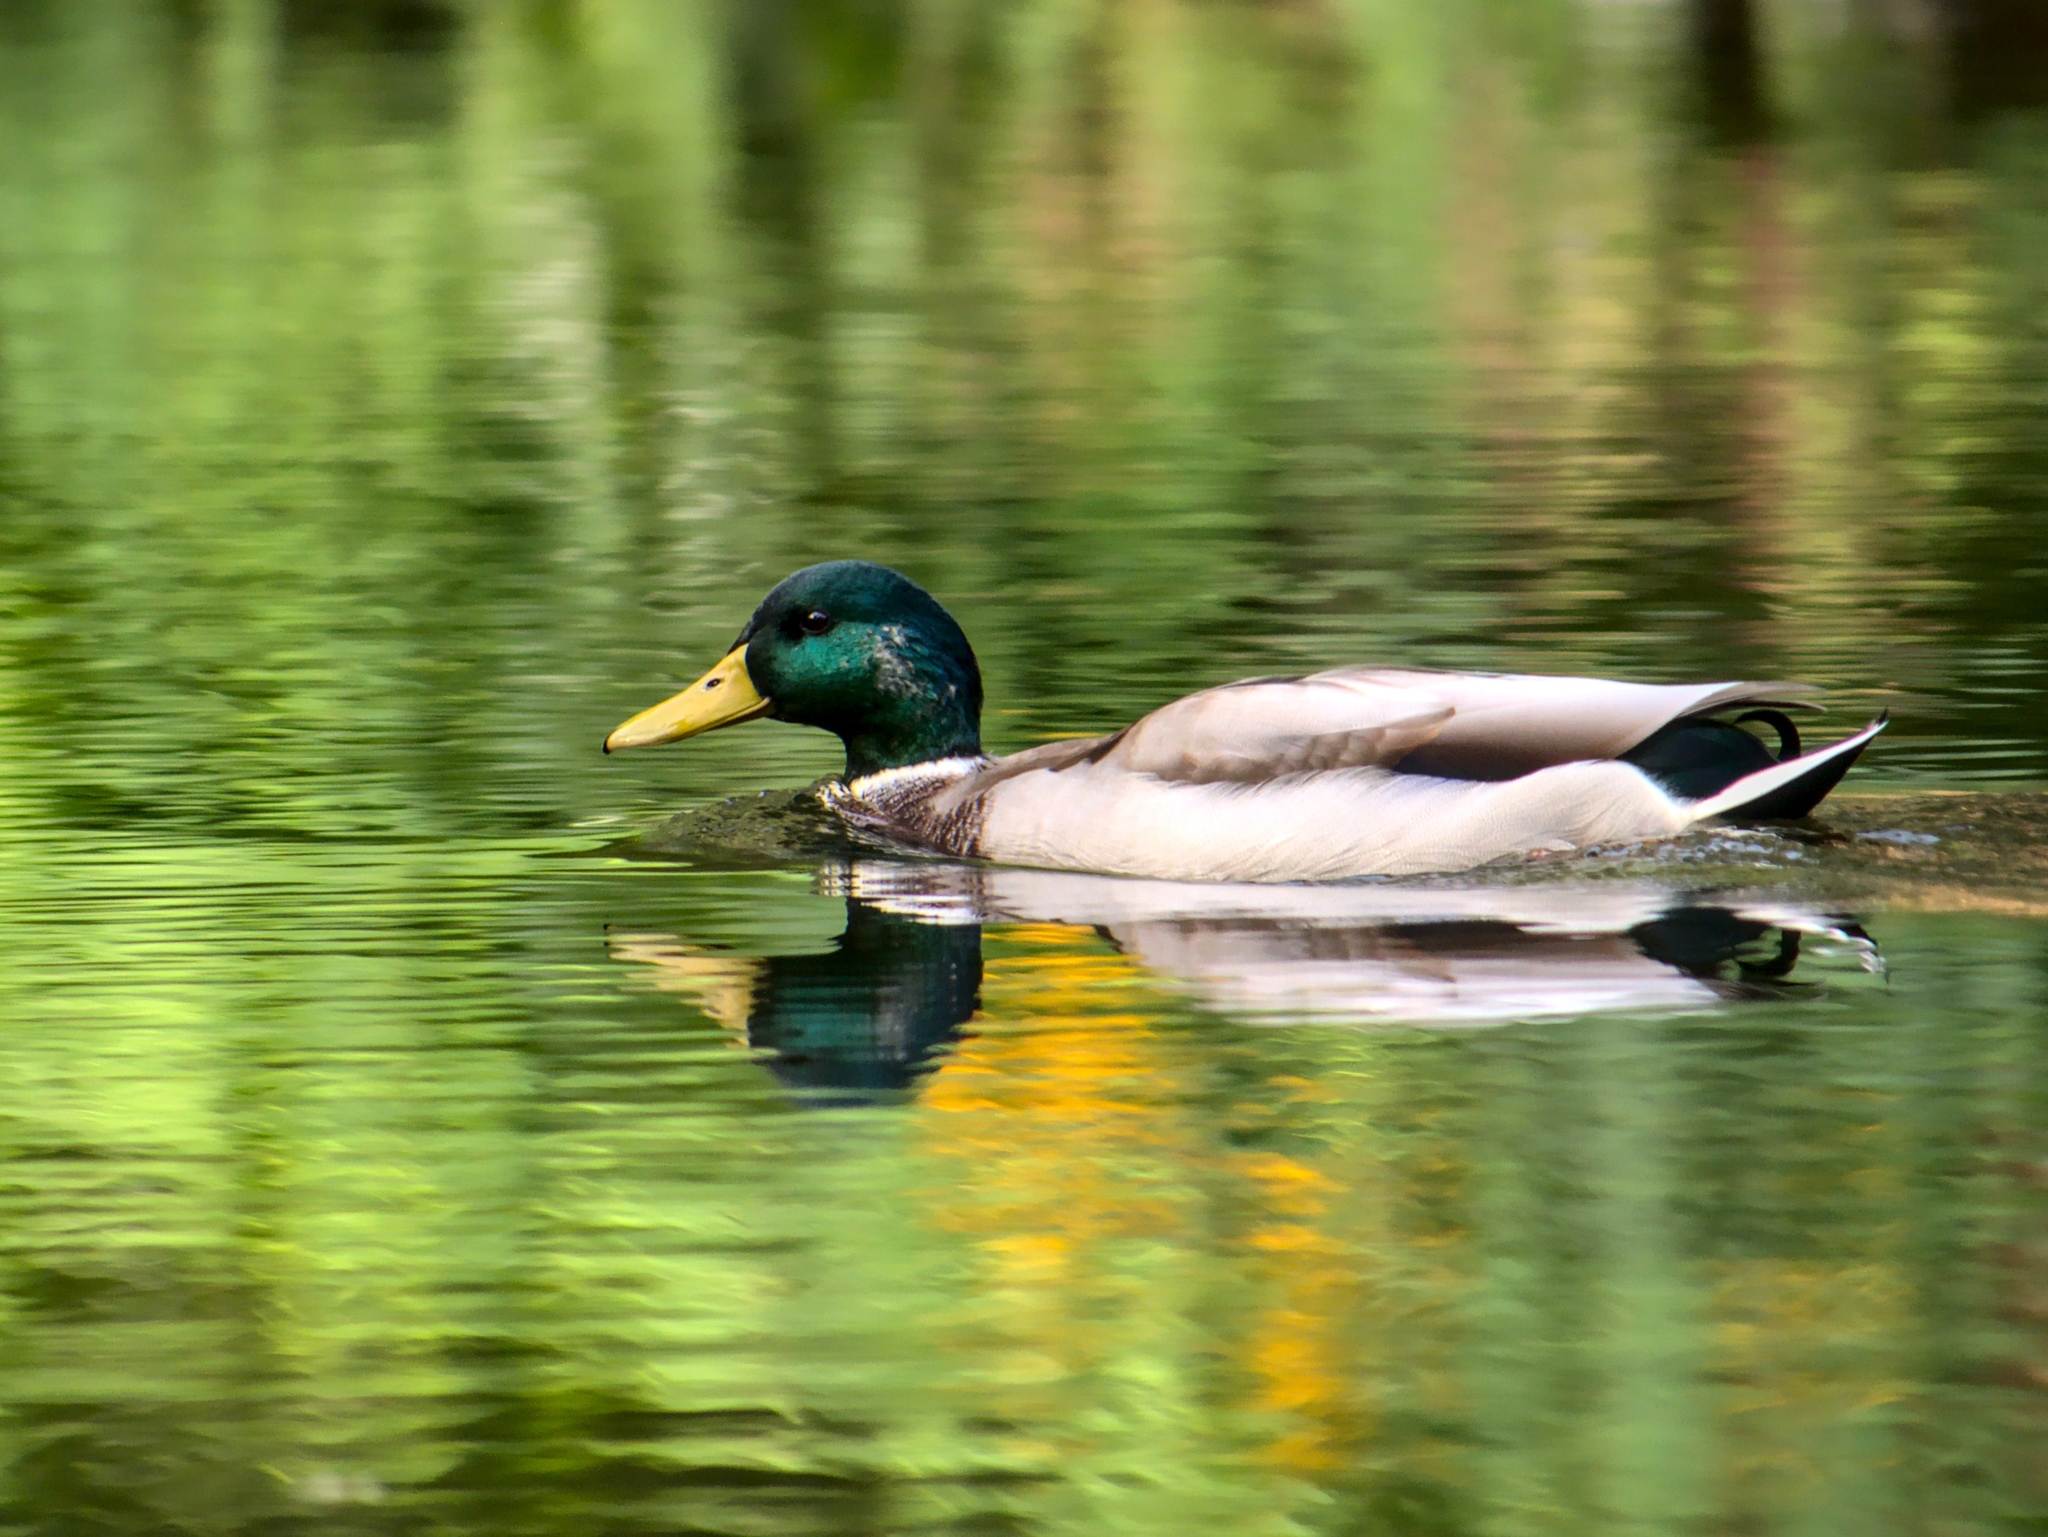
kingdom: Animalia
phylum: Chordata
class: Aves
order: Anseriformes
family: Anatidae
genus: Anas
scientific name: Anas platyrhynchos
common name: Mallard
